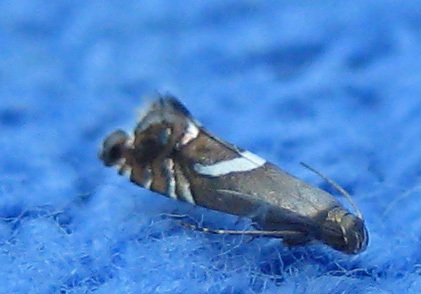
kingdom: Animalia
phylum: Arthropoda
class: Insecta
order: Lepidoptera
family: Glyphipterigidae
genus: Glyphipterix
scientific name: Glyphipterix Diploschizia impigritella
